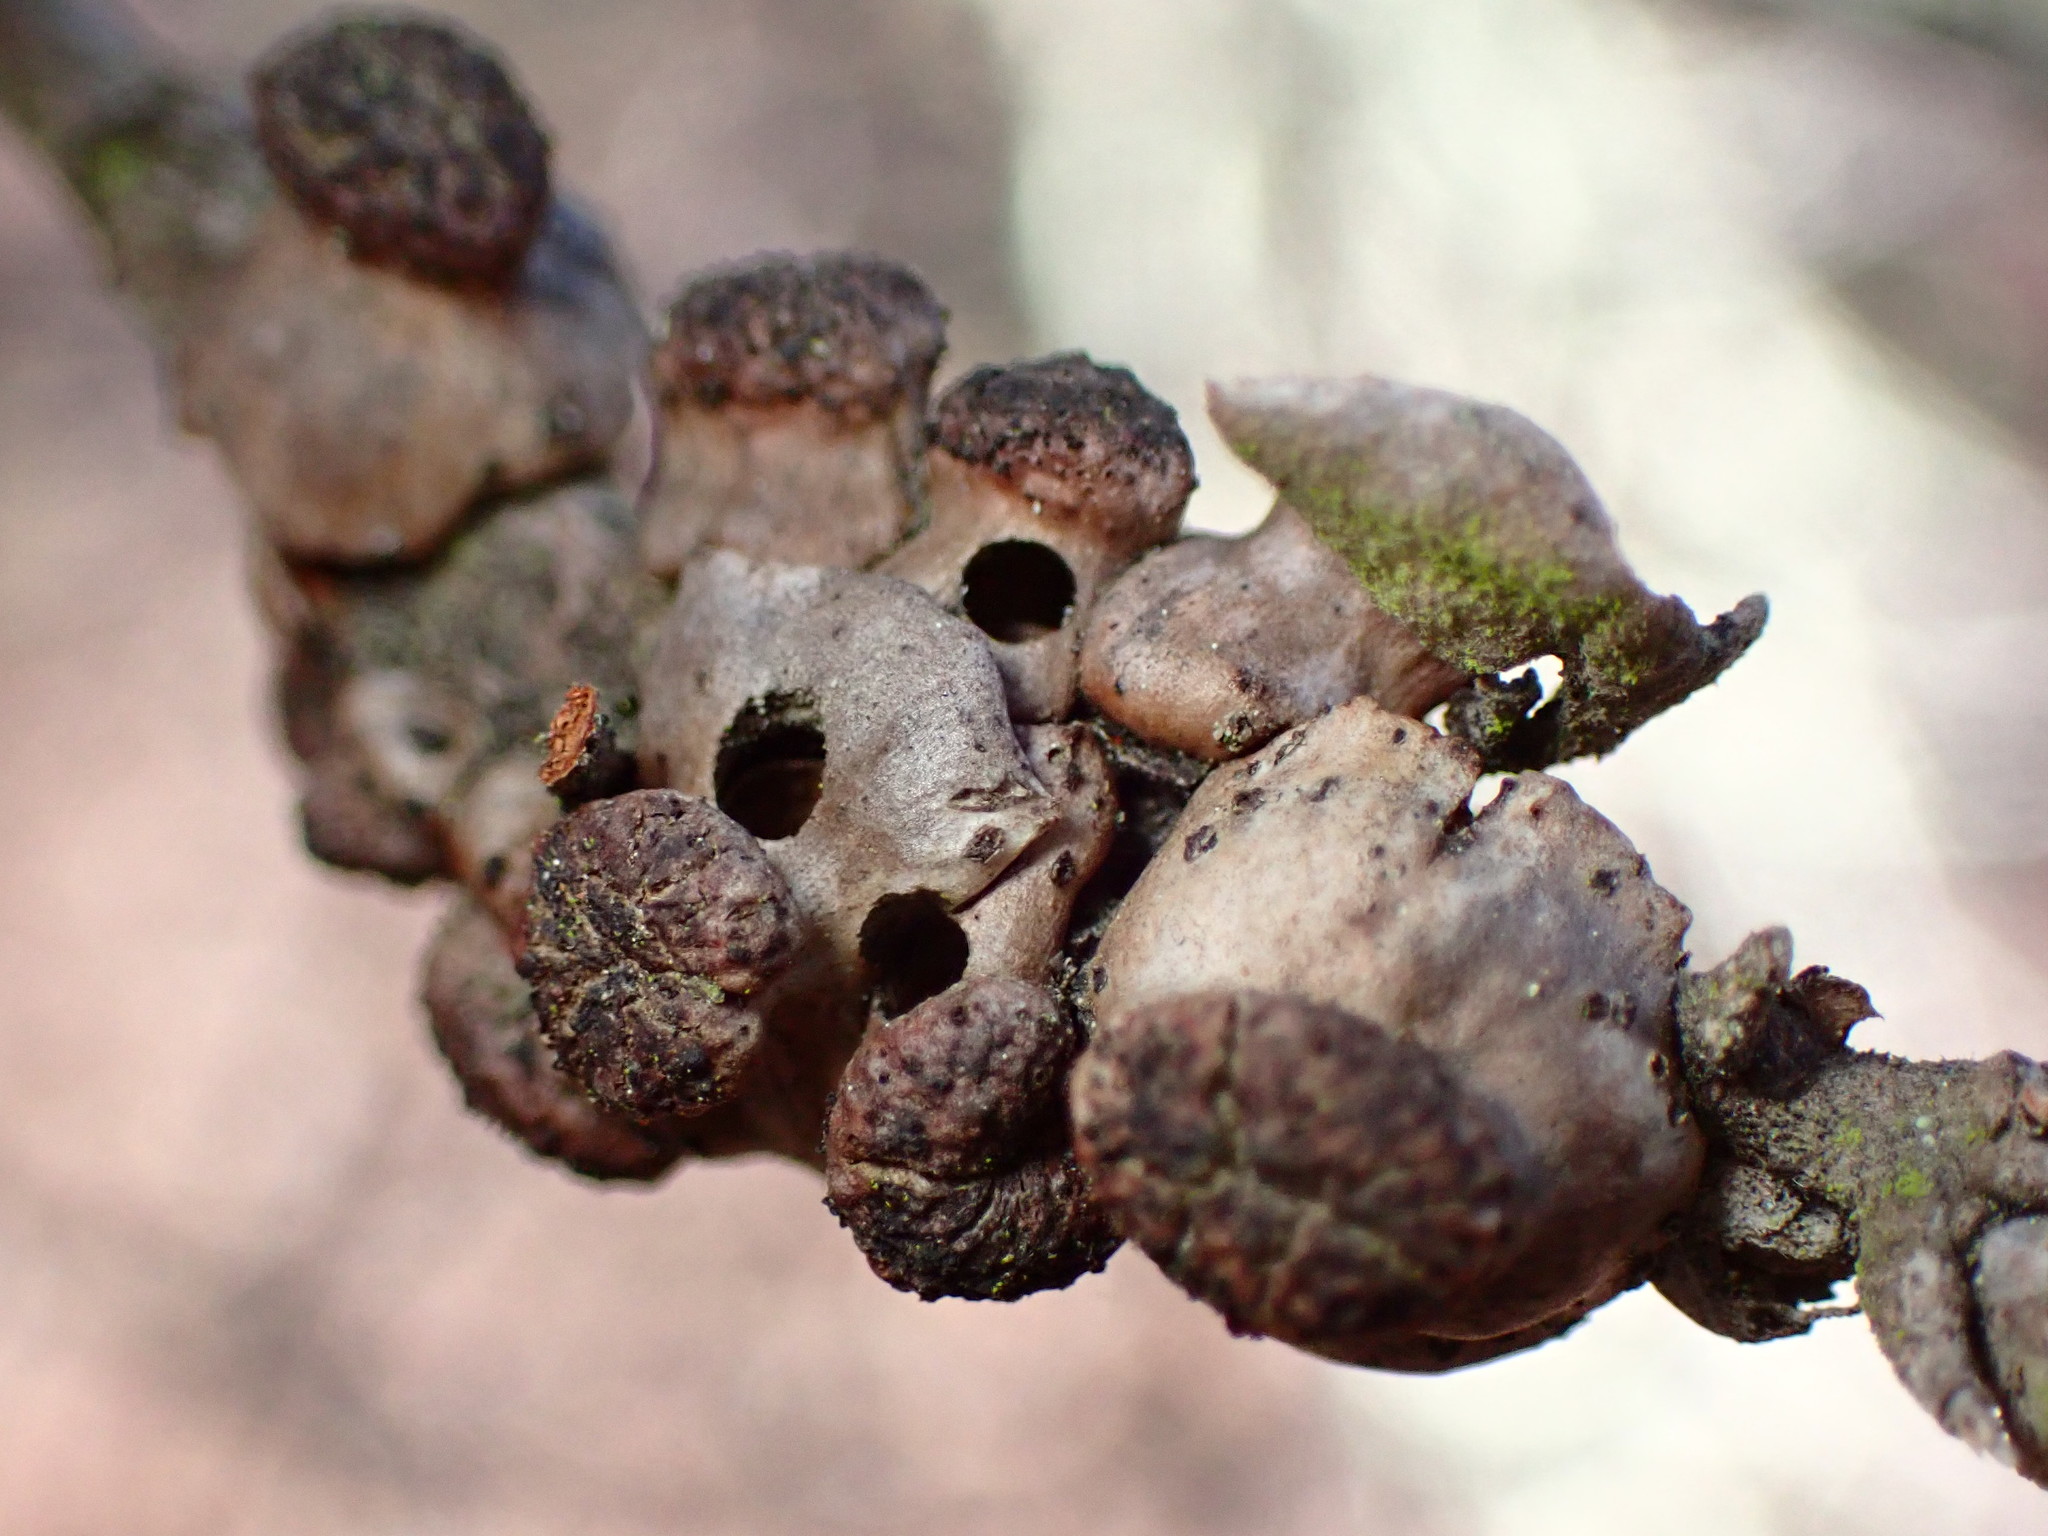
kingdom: Animalia
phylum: Arthropoda
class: Insecta
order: Hymenoptera
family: Cynipidae
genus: Disholcaspis
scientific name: Disholcaspis prehensa
